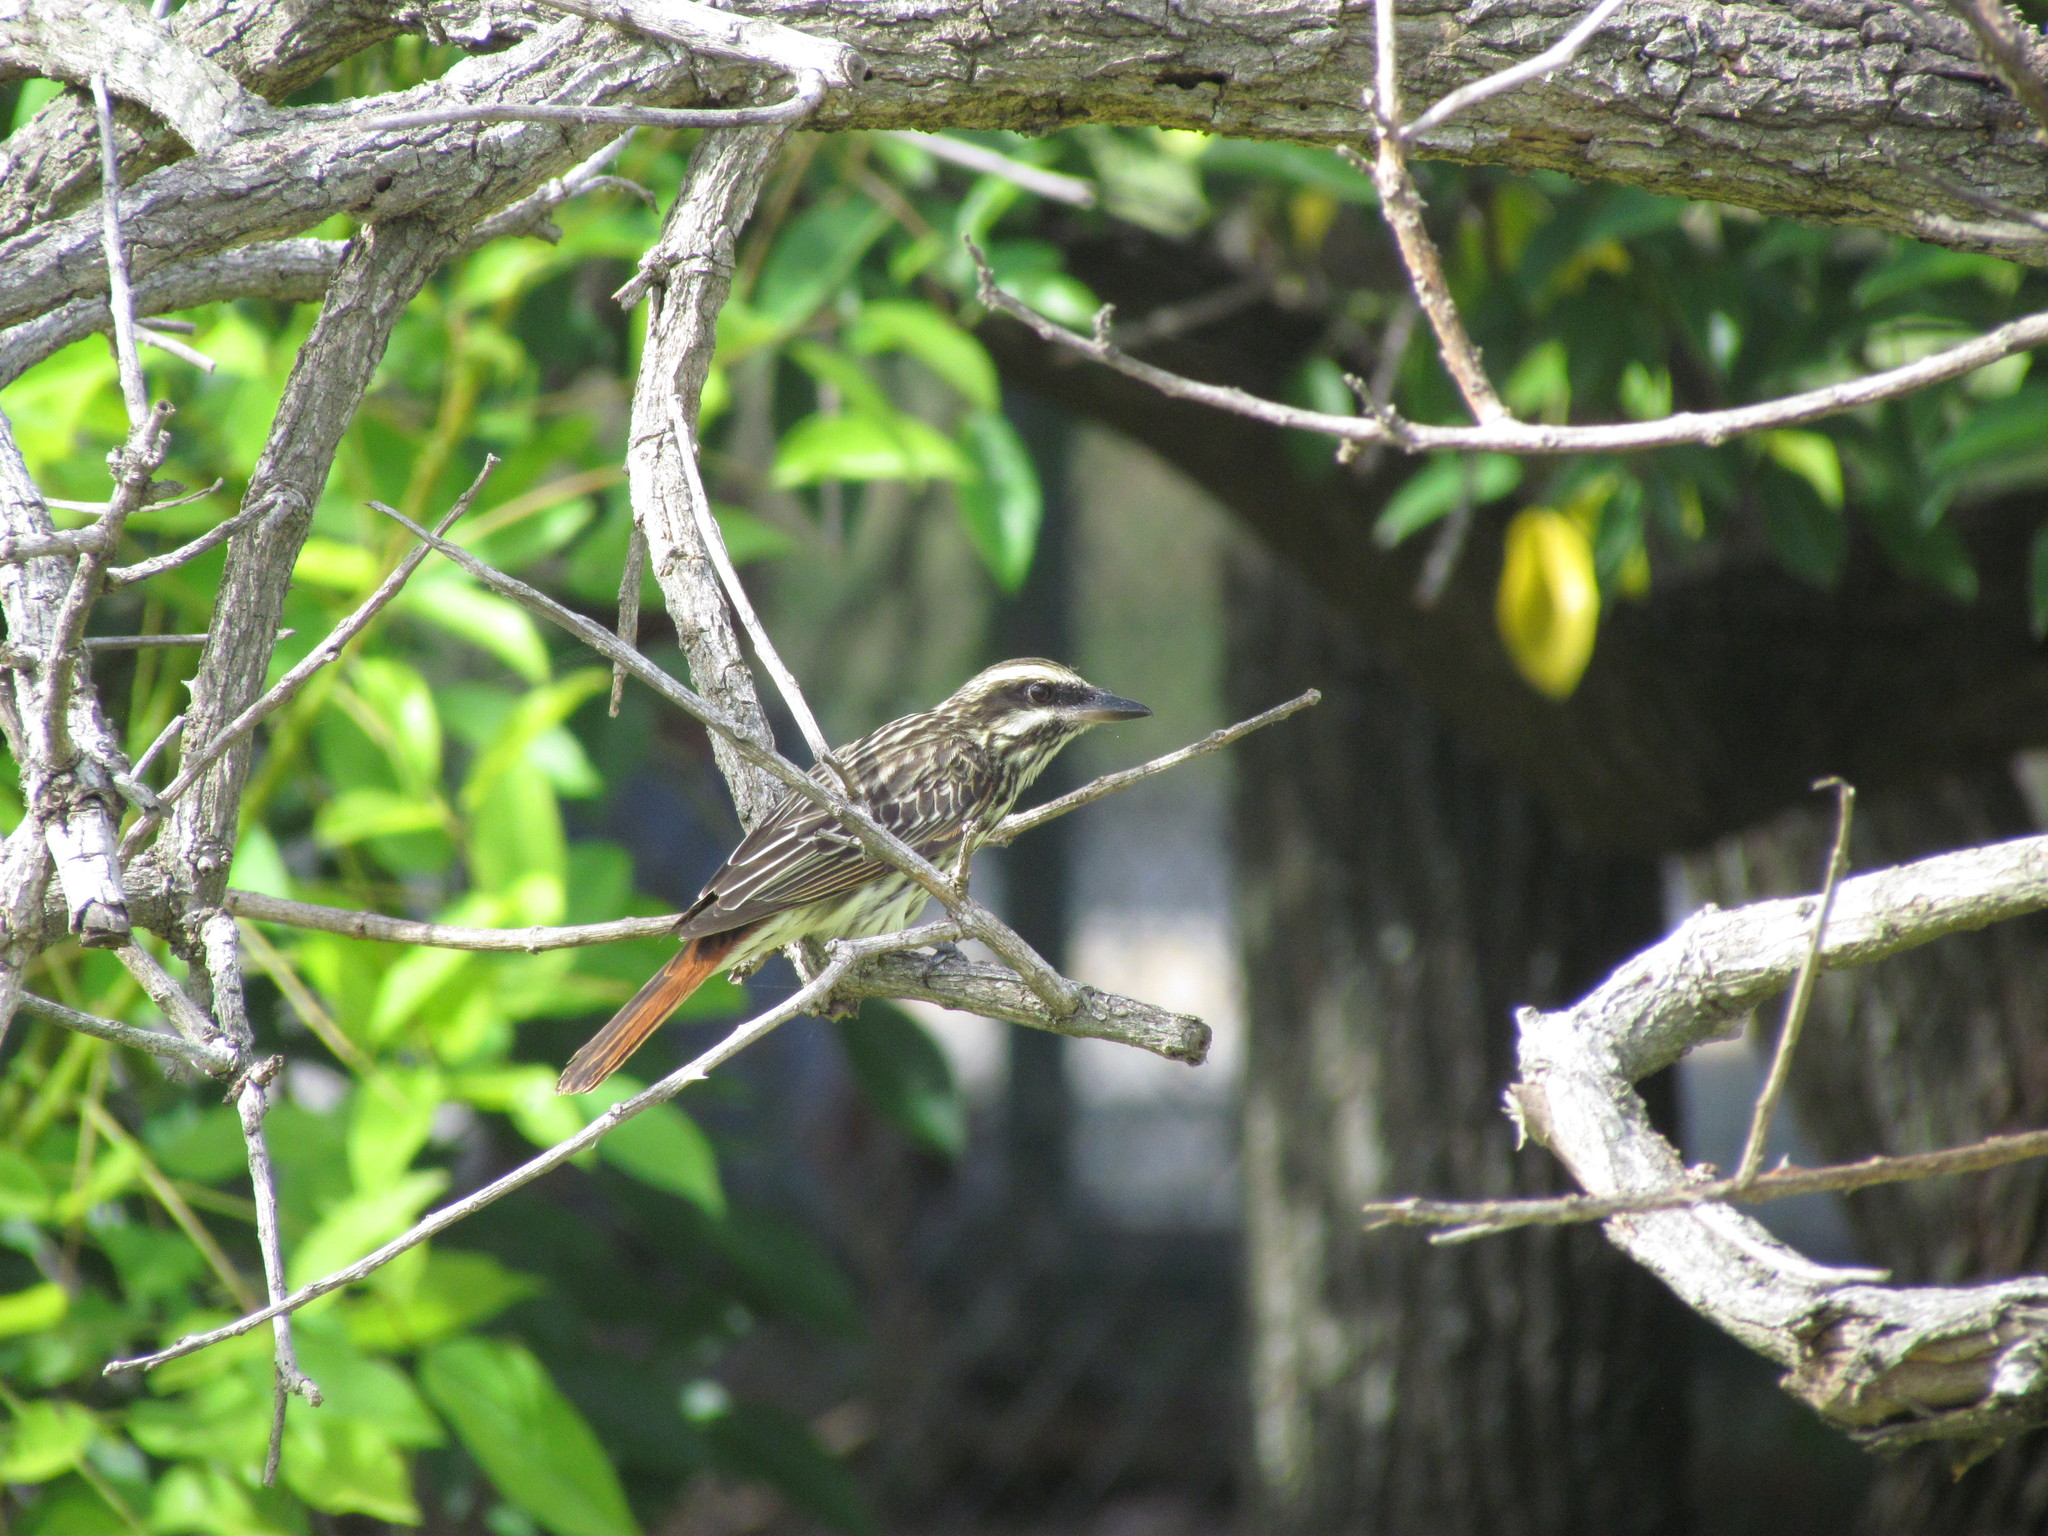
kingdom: Animalia
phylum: Chordata
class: Aves
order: Passeriformes
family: Tyrannidae
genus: Myiodynastes
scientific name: Myiodynastes maculatus
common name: Streaked flycatcher
